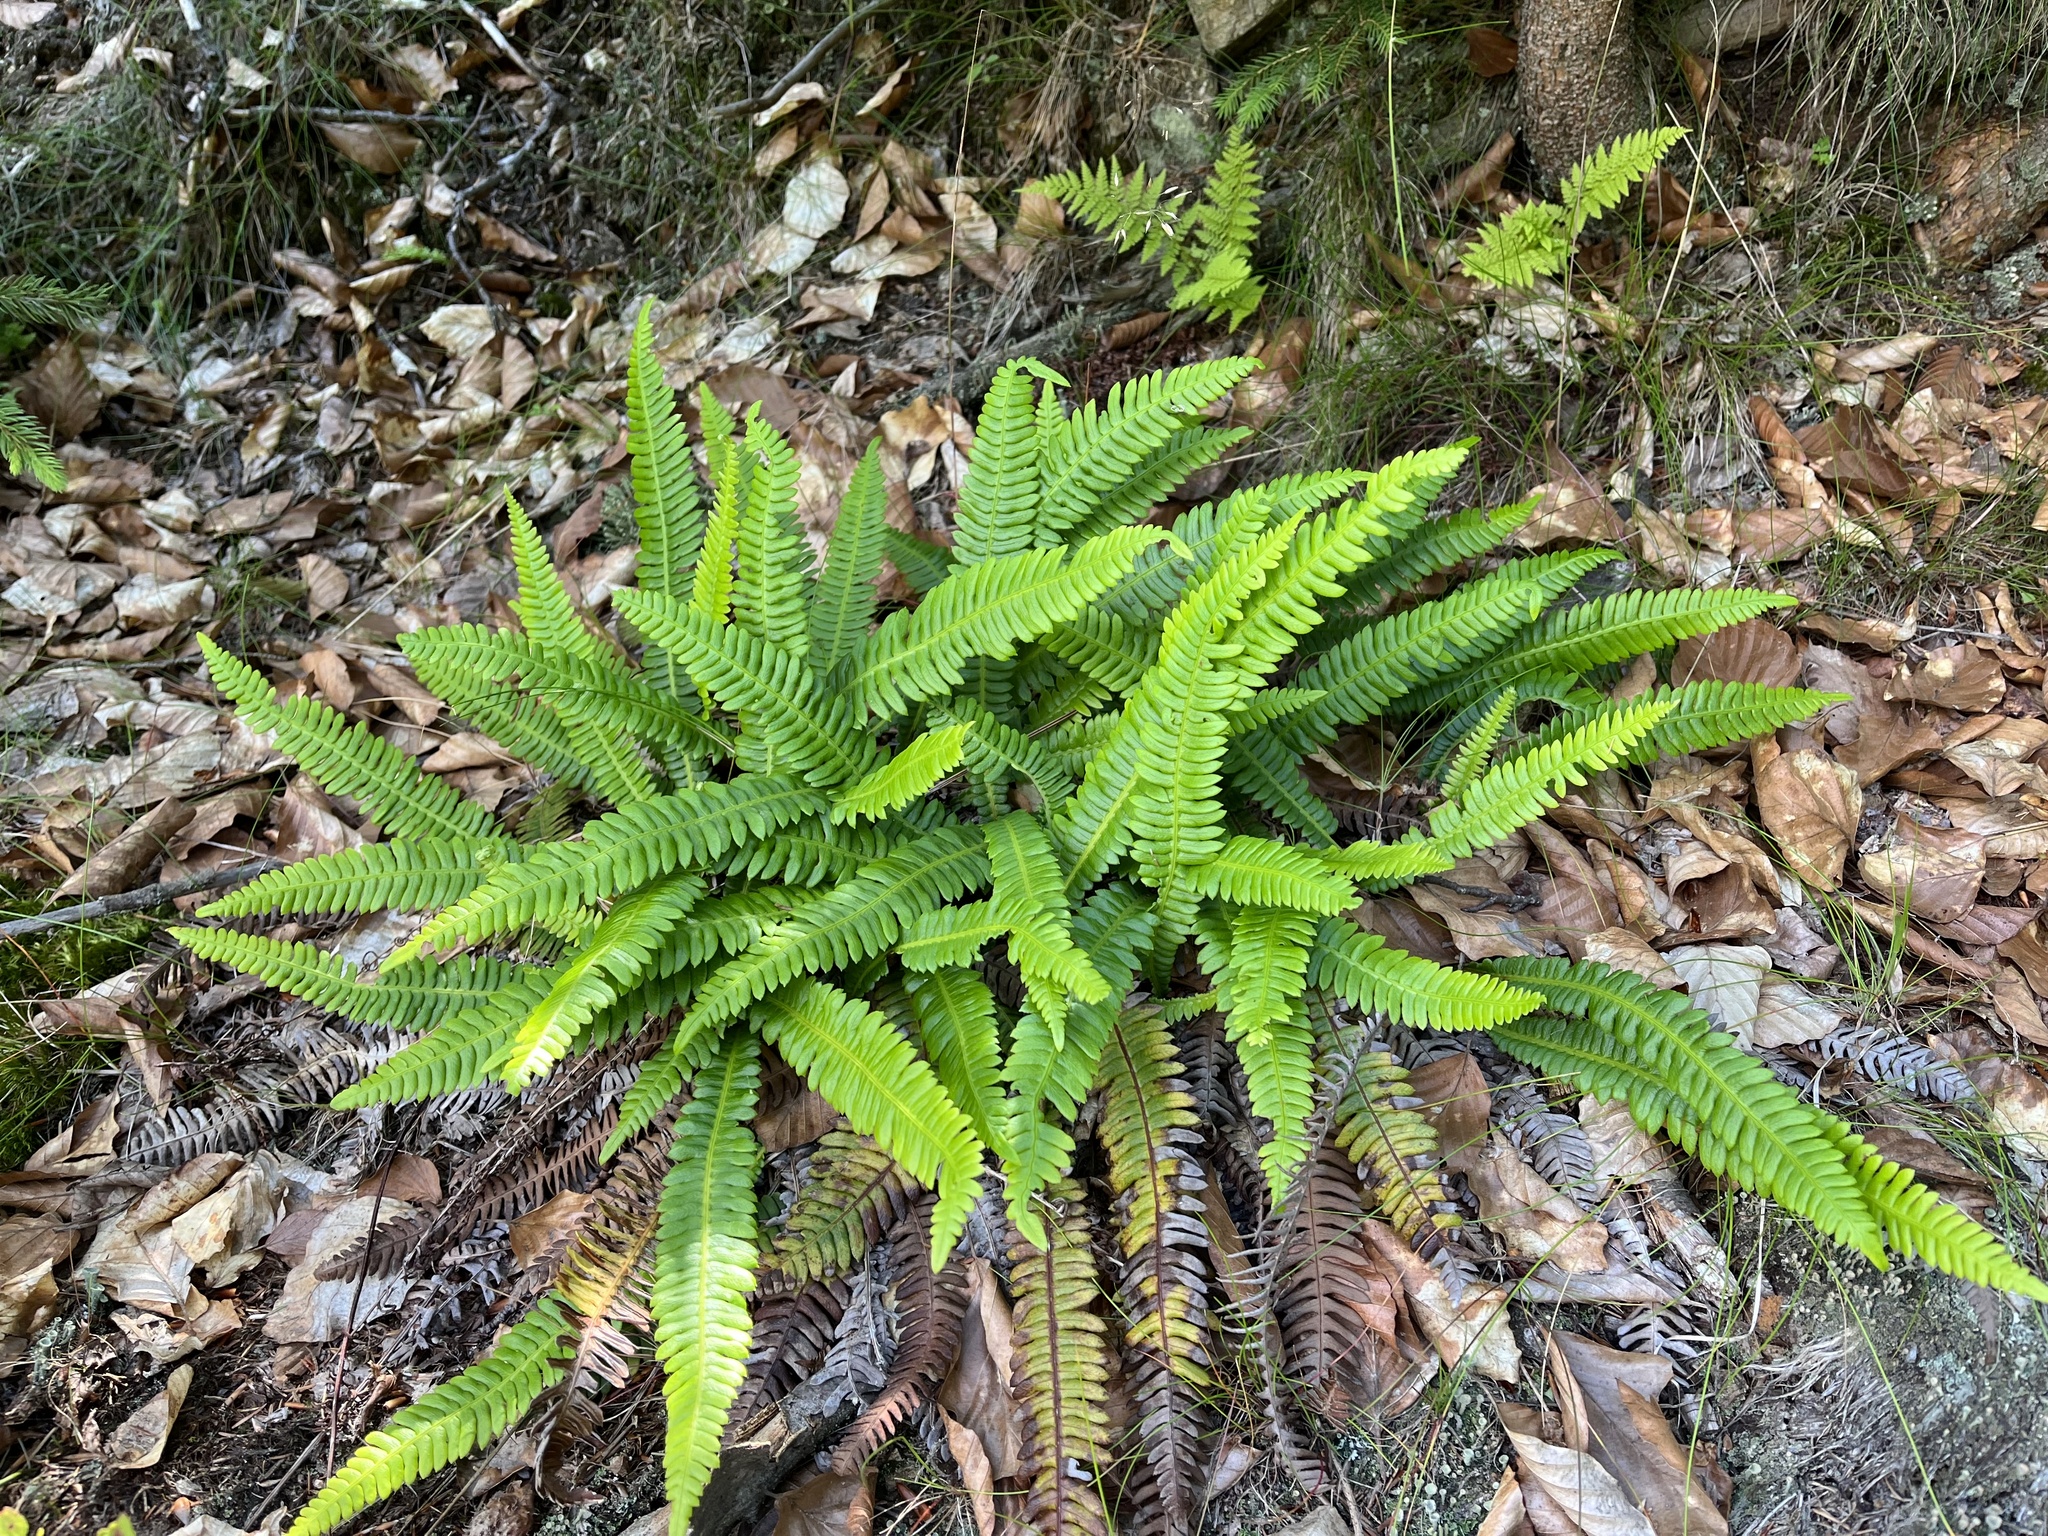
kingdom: Plantae
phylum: Tracheophyta
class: Polypodiopsida
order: Polypodiales
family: Blechnaceae
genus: Struthiopteris
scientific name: Struthiopteris spicant
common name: Deer fern
